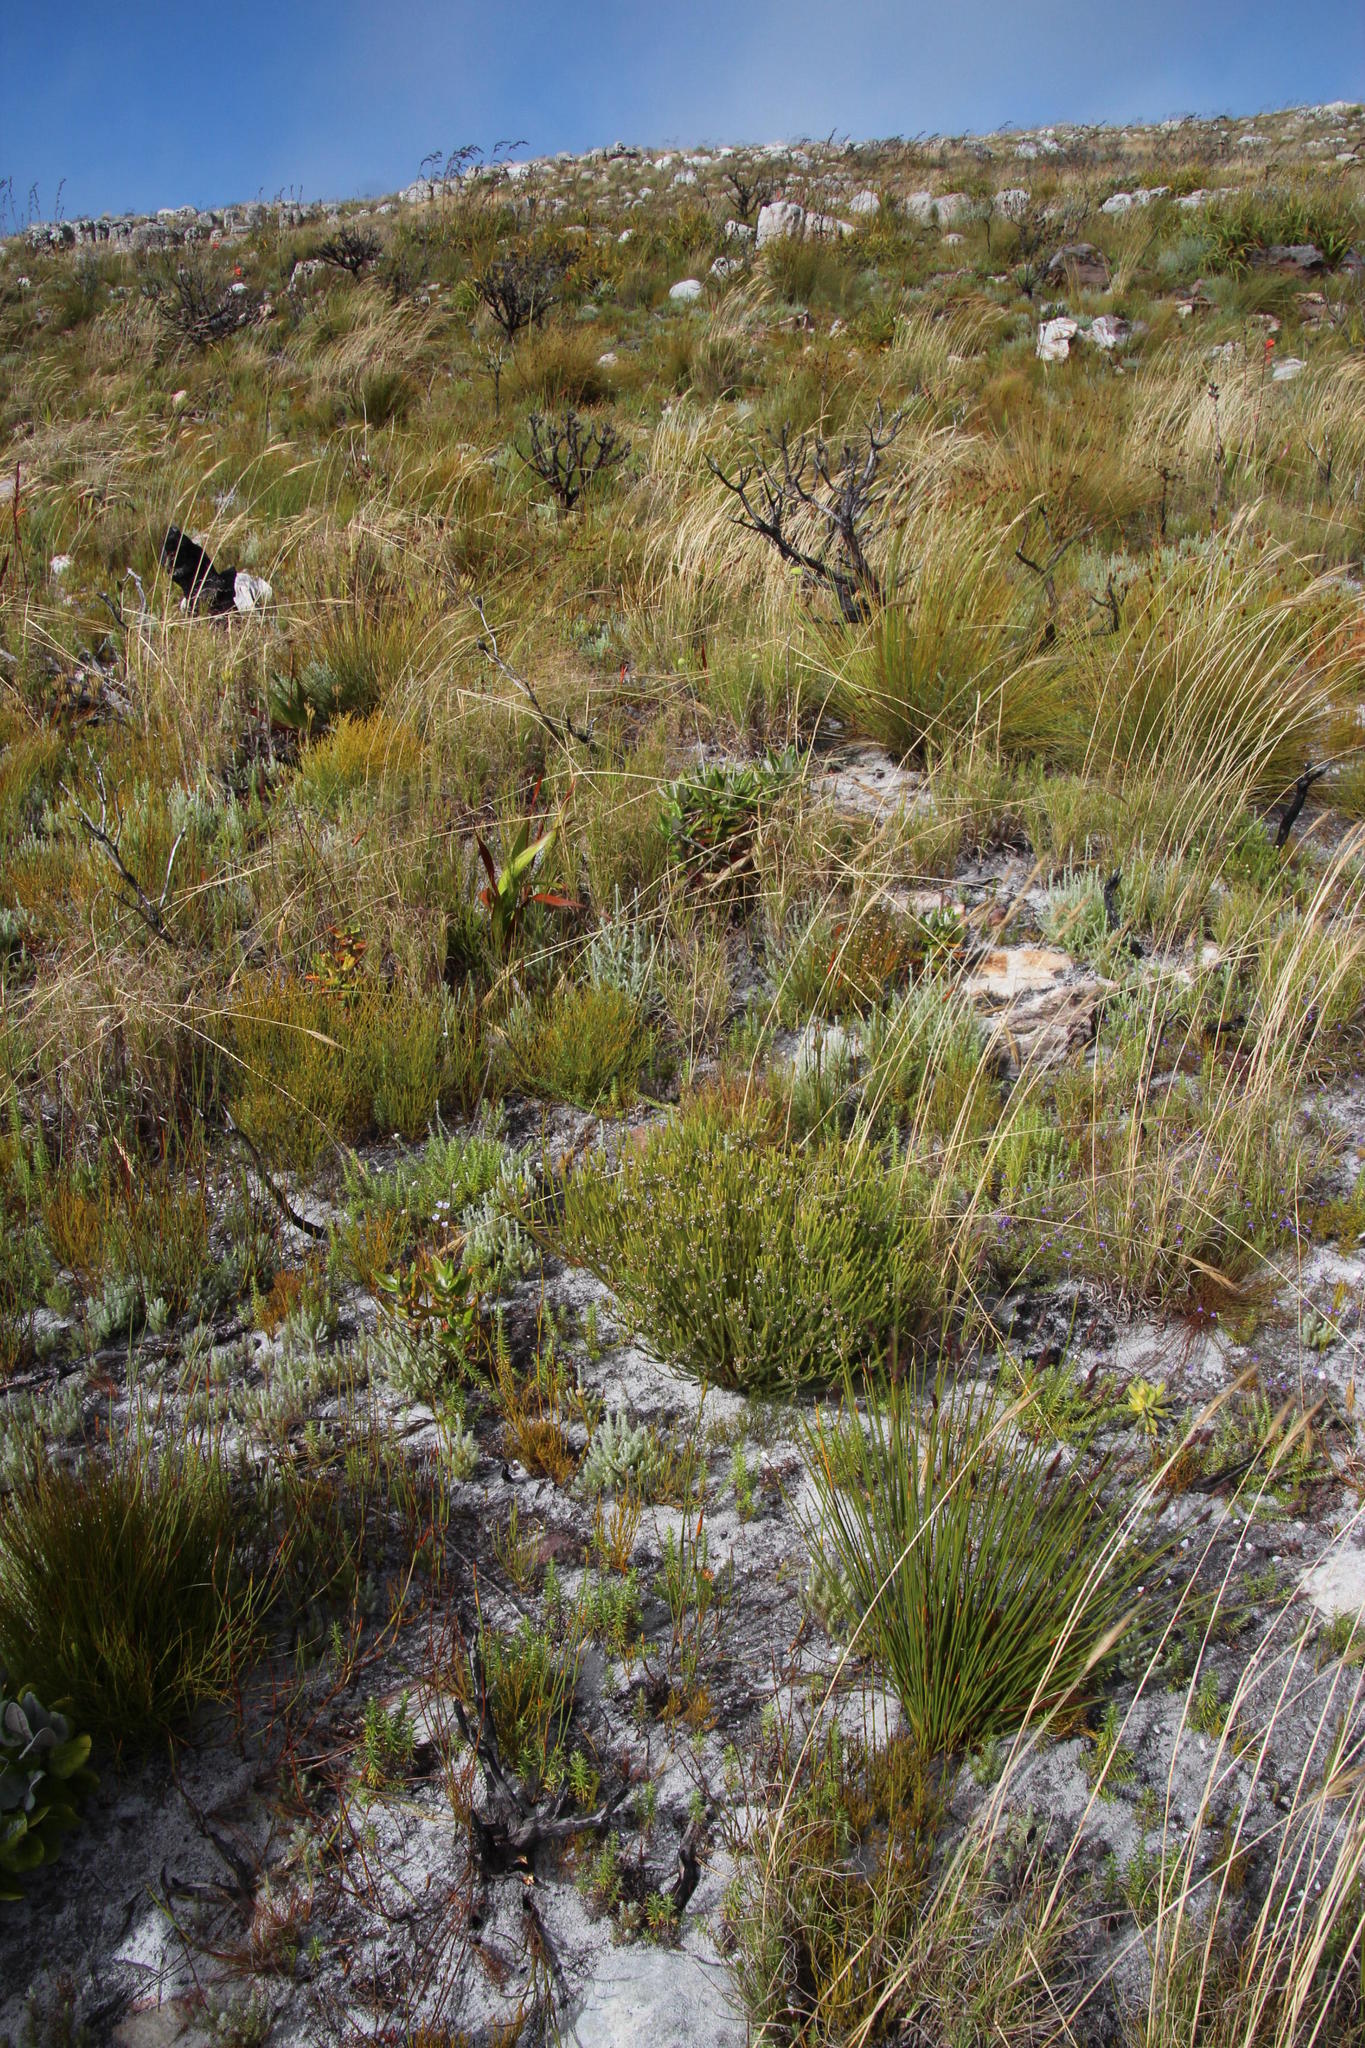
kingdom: Plantae
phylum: Tracheophyta
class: Magnoliopsida
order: Bruniales
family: Bruniaceae
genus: Staavia
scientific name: Staavia radiata
